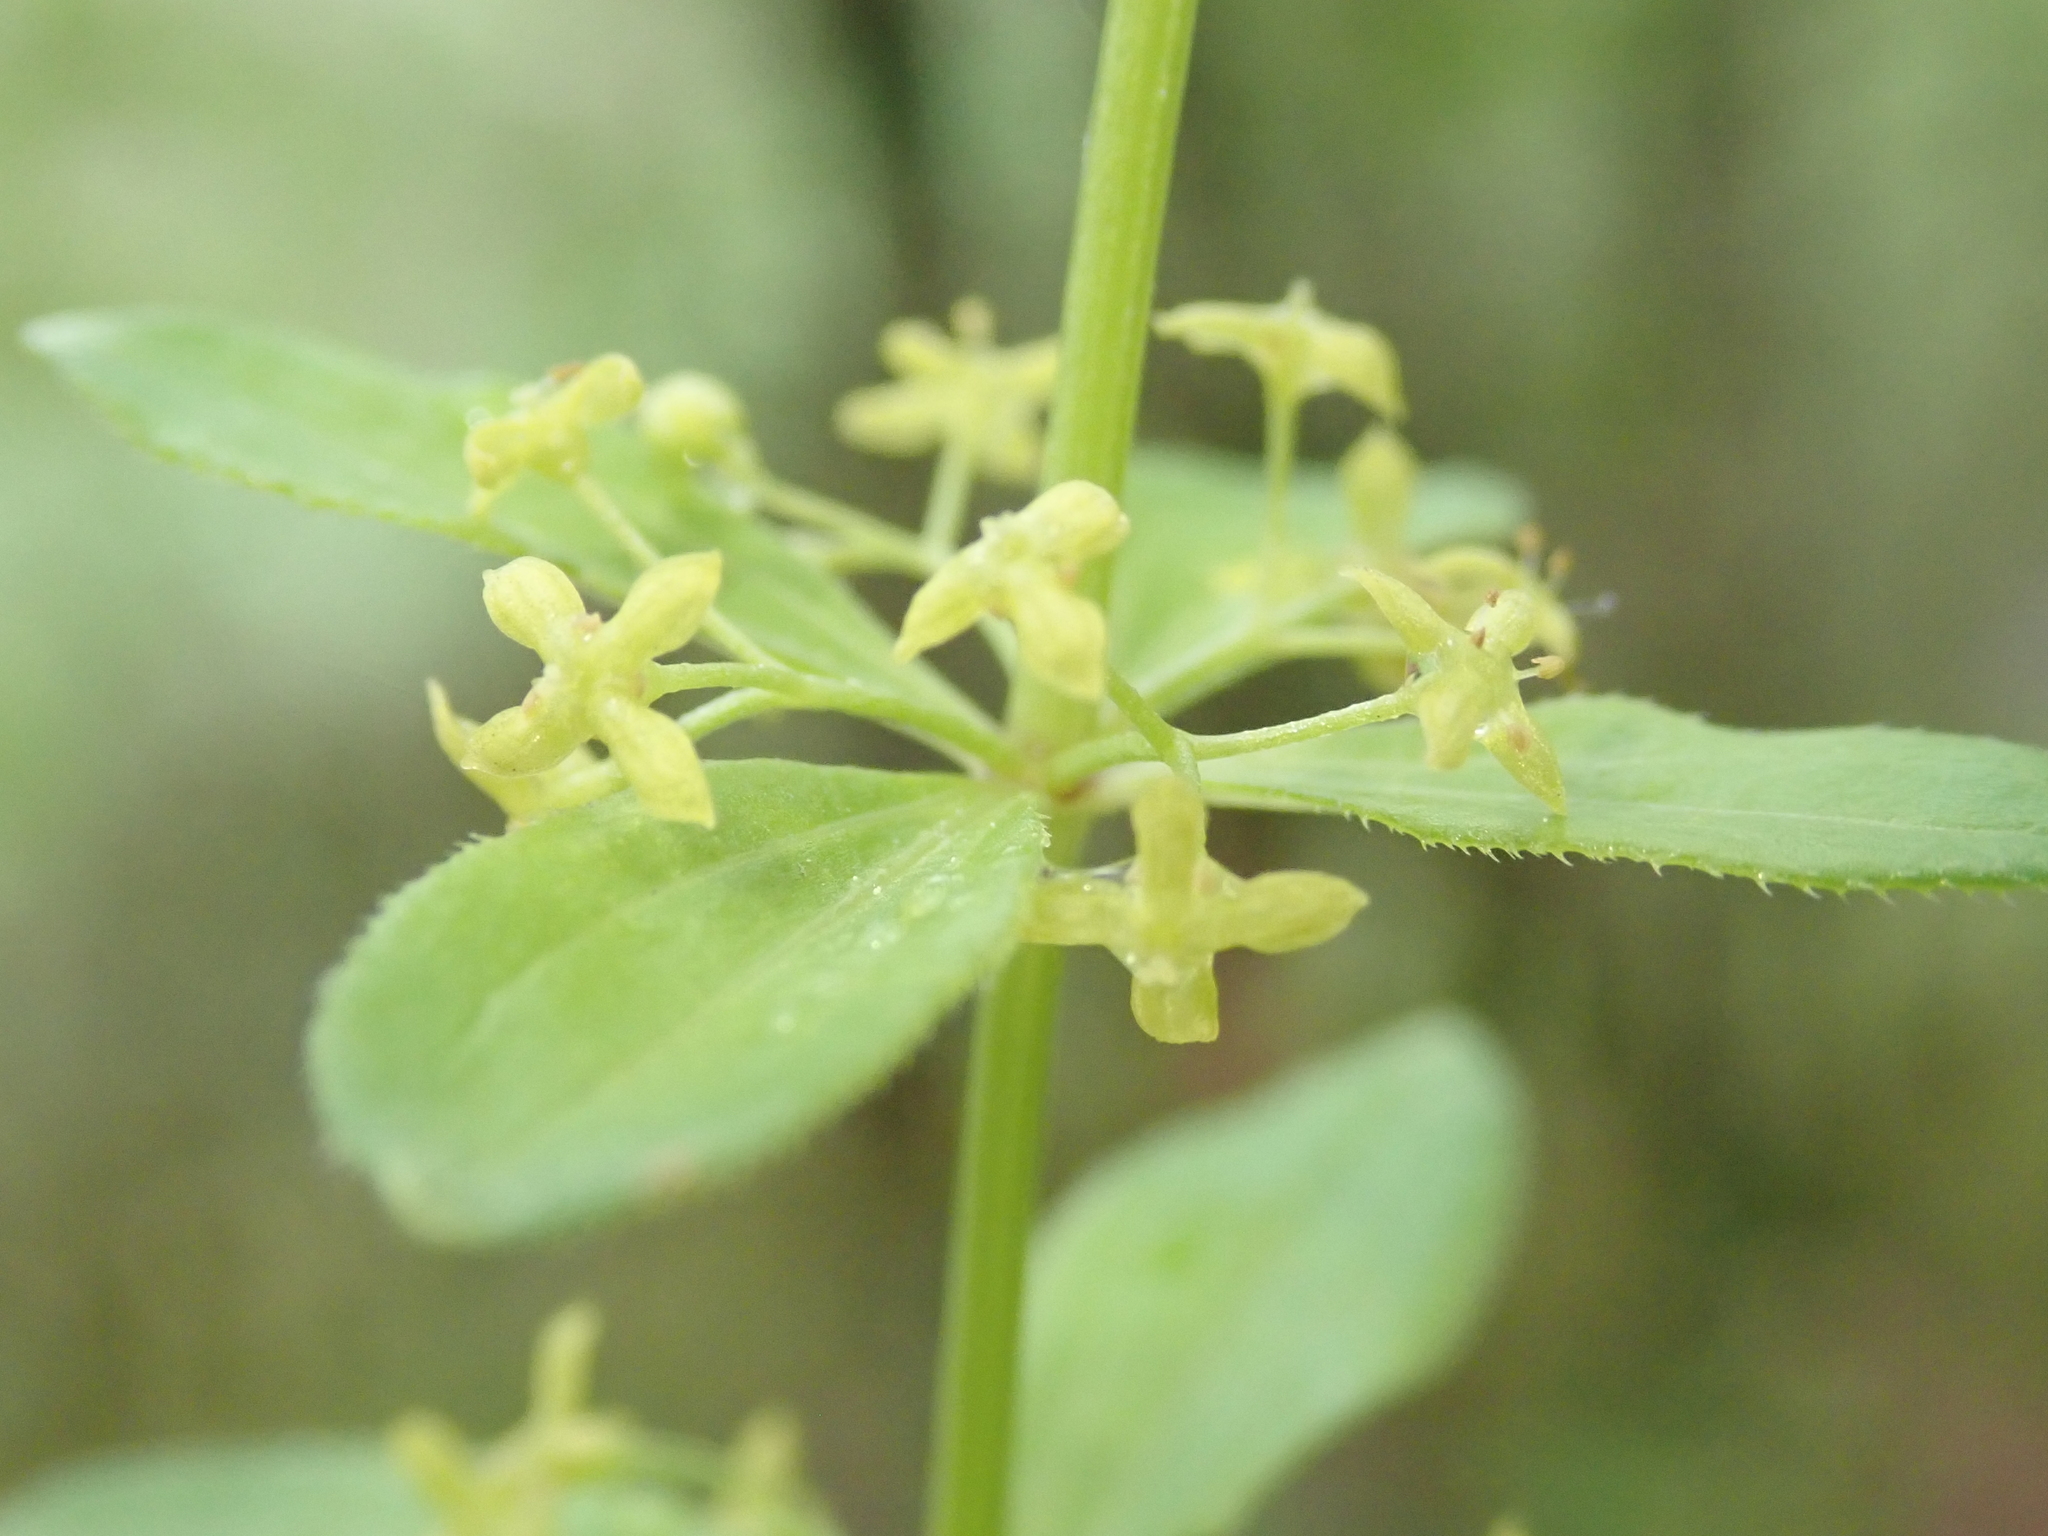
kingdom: Plantae
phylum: Tracheophyta
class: Magnoliopsida
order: Gentianales
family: Rubiaceae
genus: Cruciata
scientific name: Cruciata glabra
